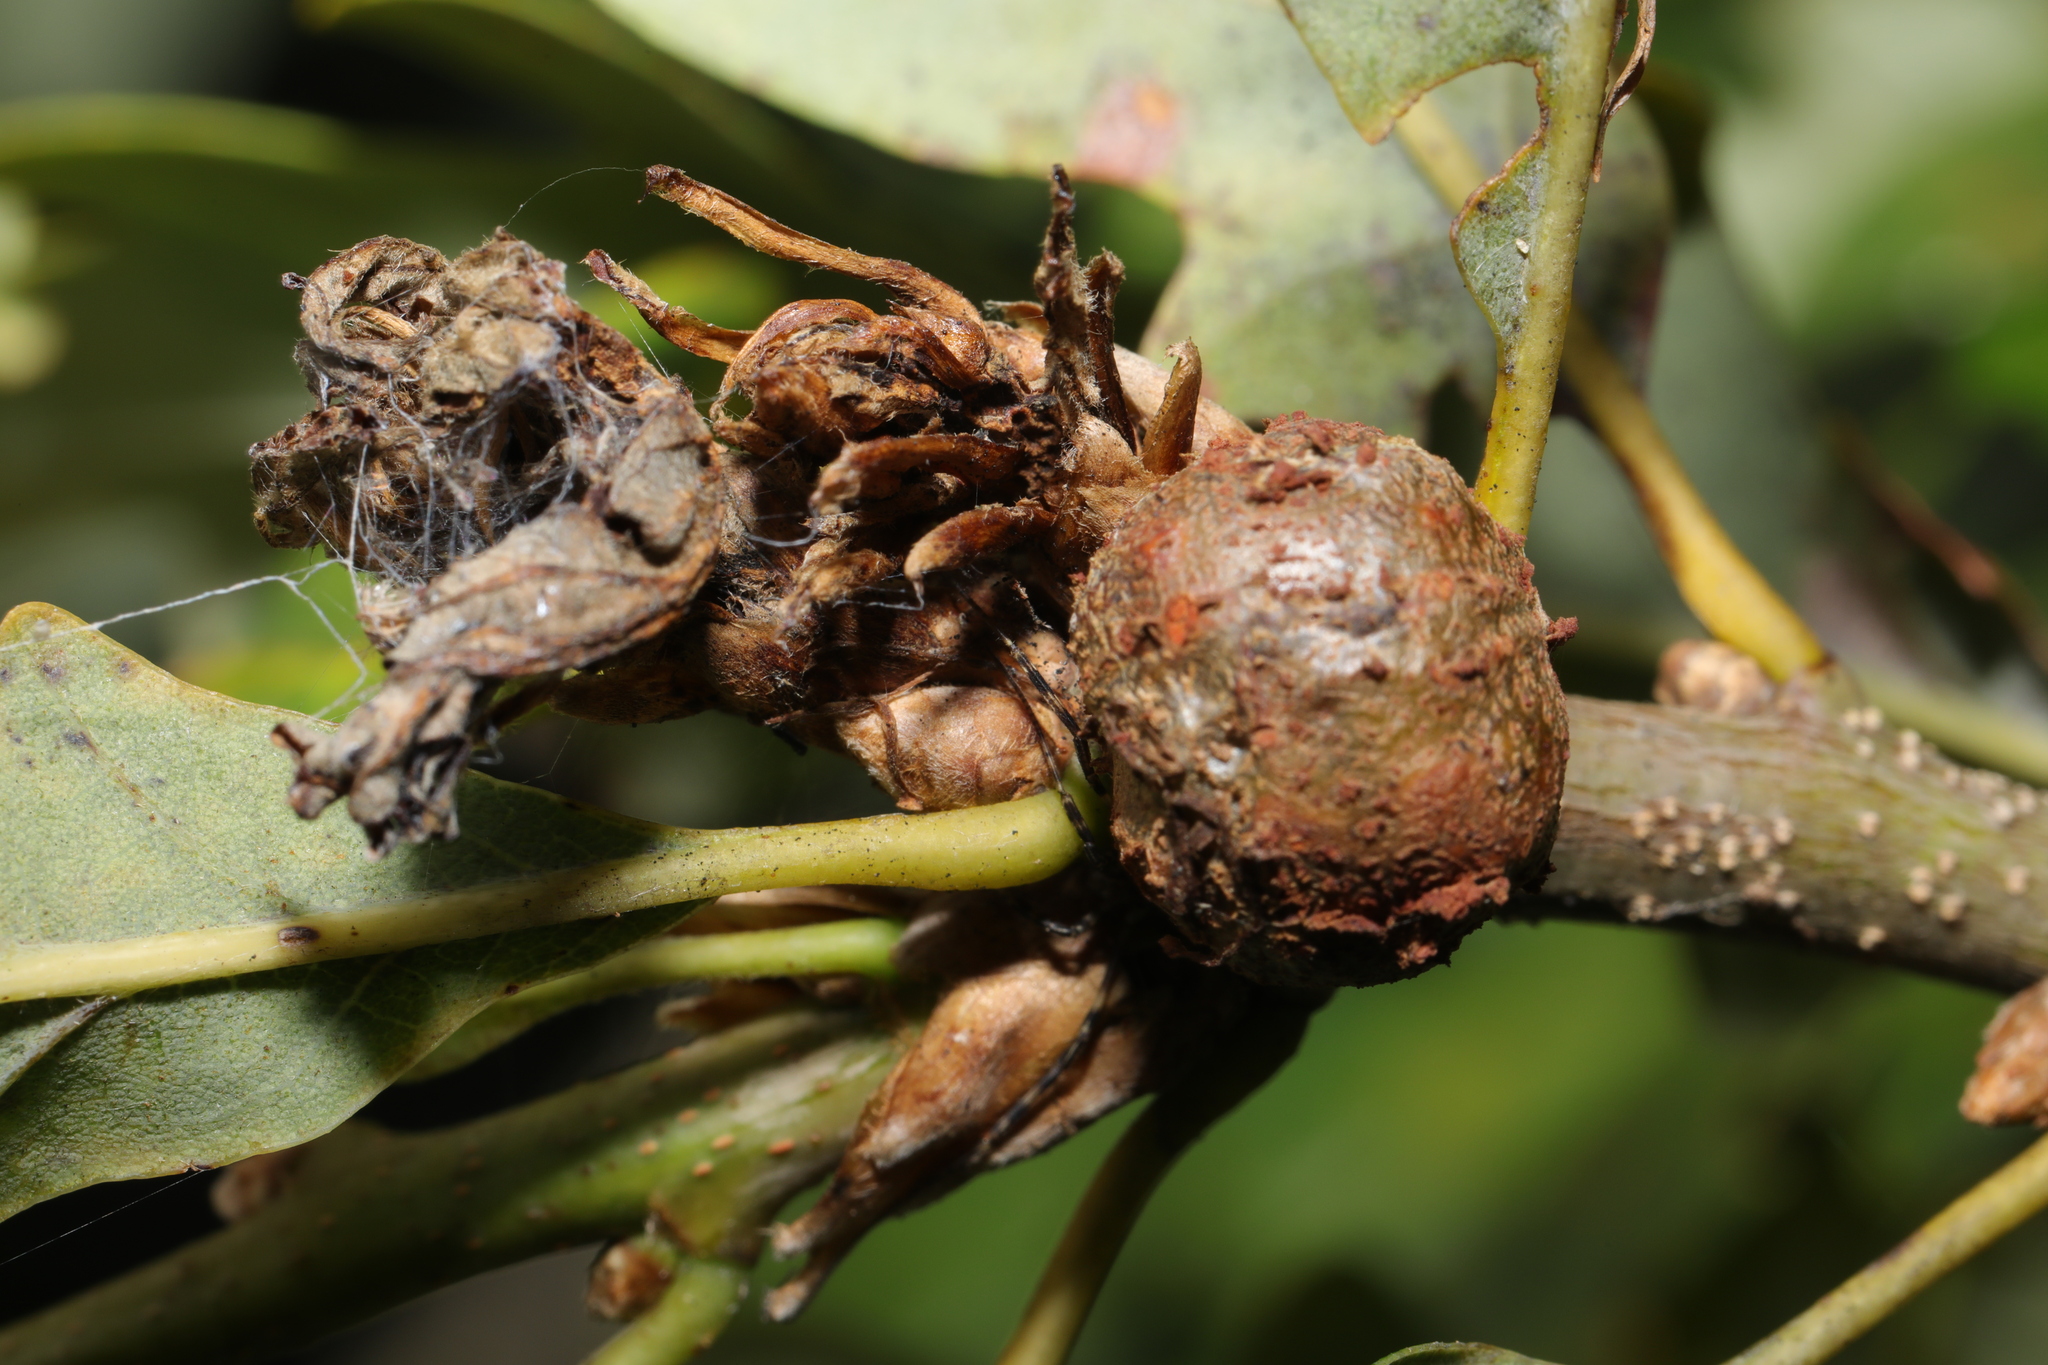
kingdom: Animalia
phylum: Arthropoda
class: Insecta
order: Hymenoptera
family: Cynipidae
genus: Andricus
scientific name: Andricus lignicolus
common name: Cola-nut gall
